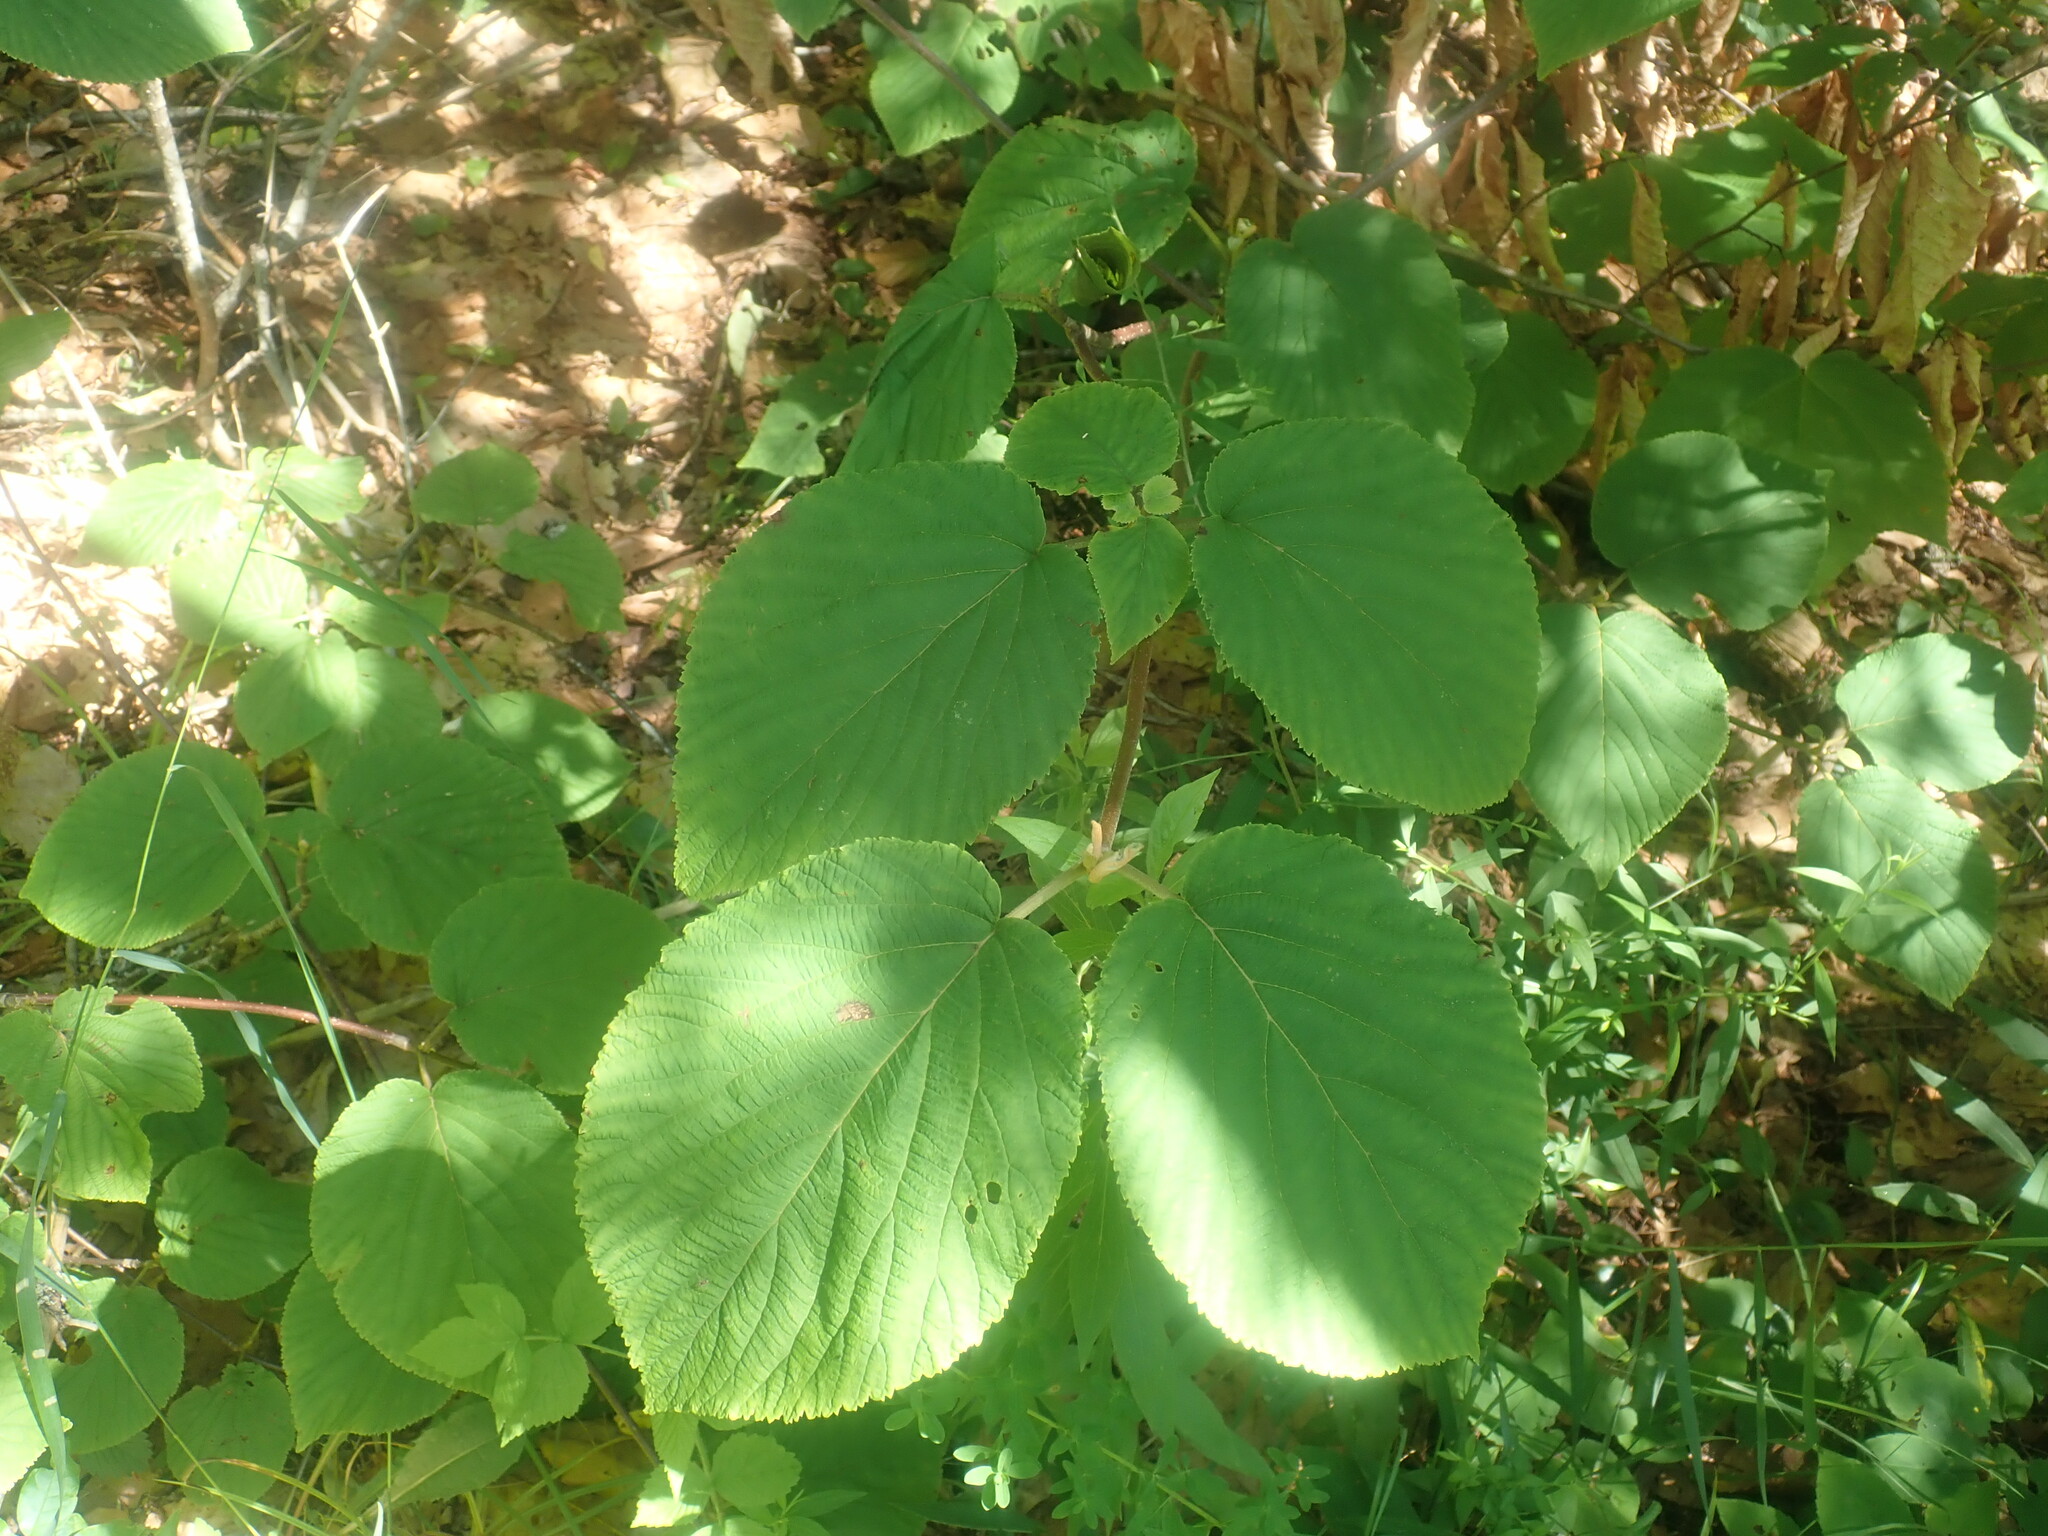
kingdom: Plantae
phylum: Tracheophyta
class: Magnoliopsida
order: Dipsacales
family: Viburnaceae
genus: Viburnum
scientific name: Viburnum lantanoides
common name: Hobblebush
